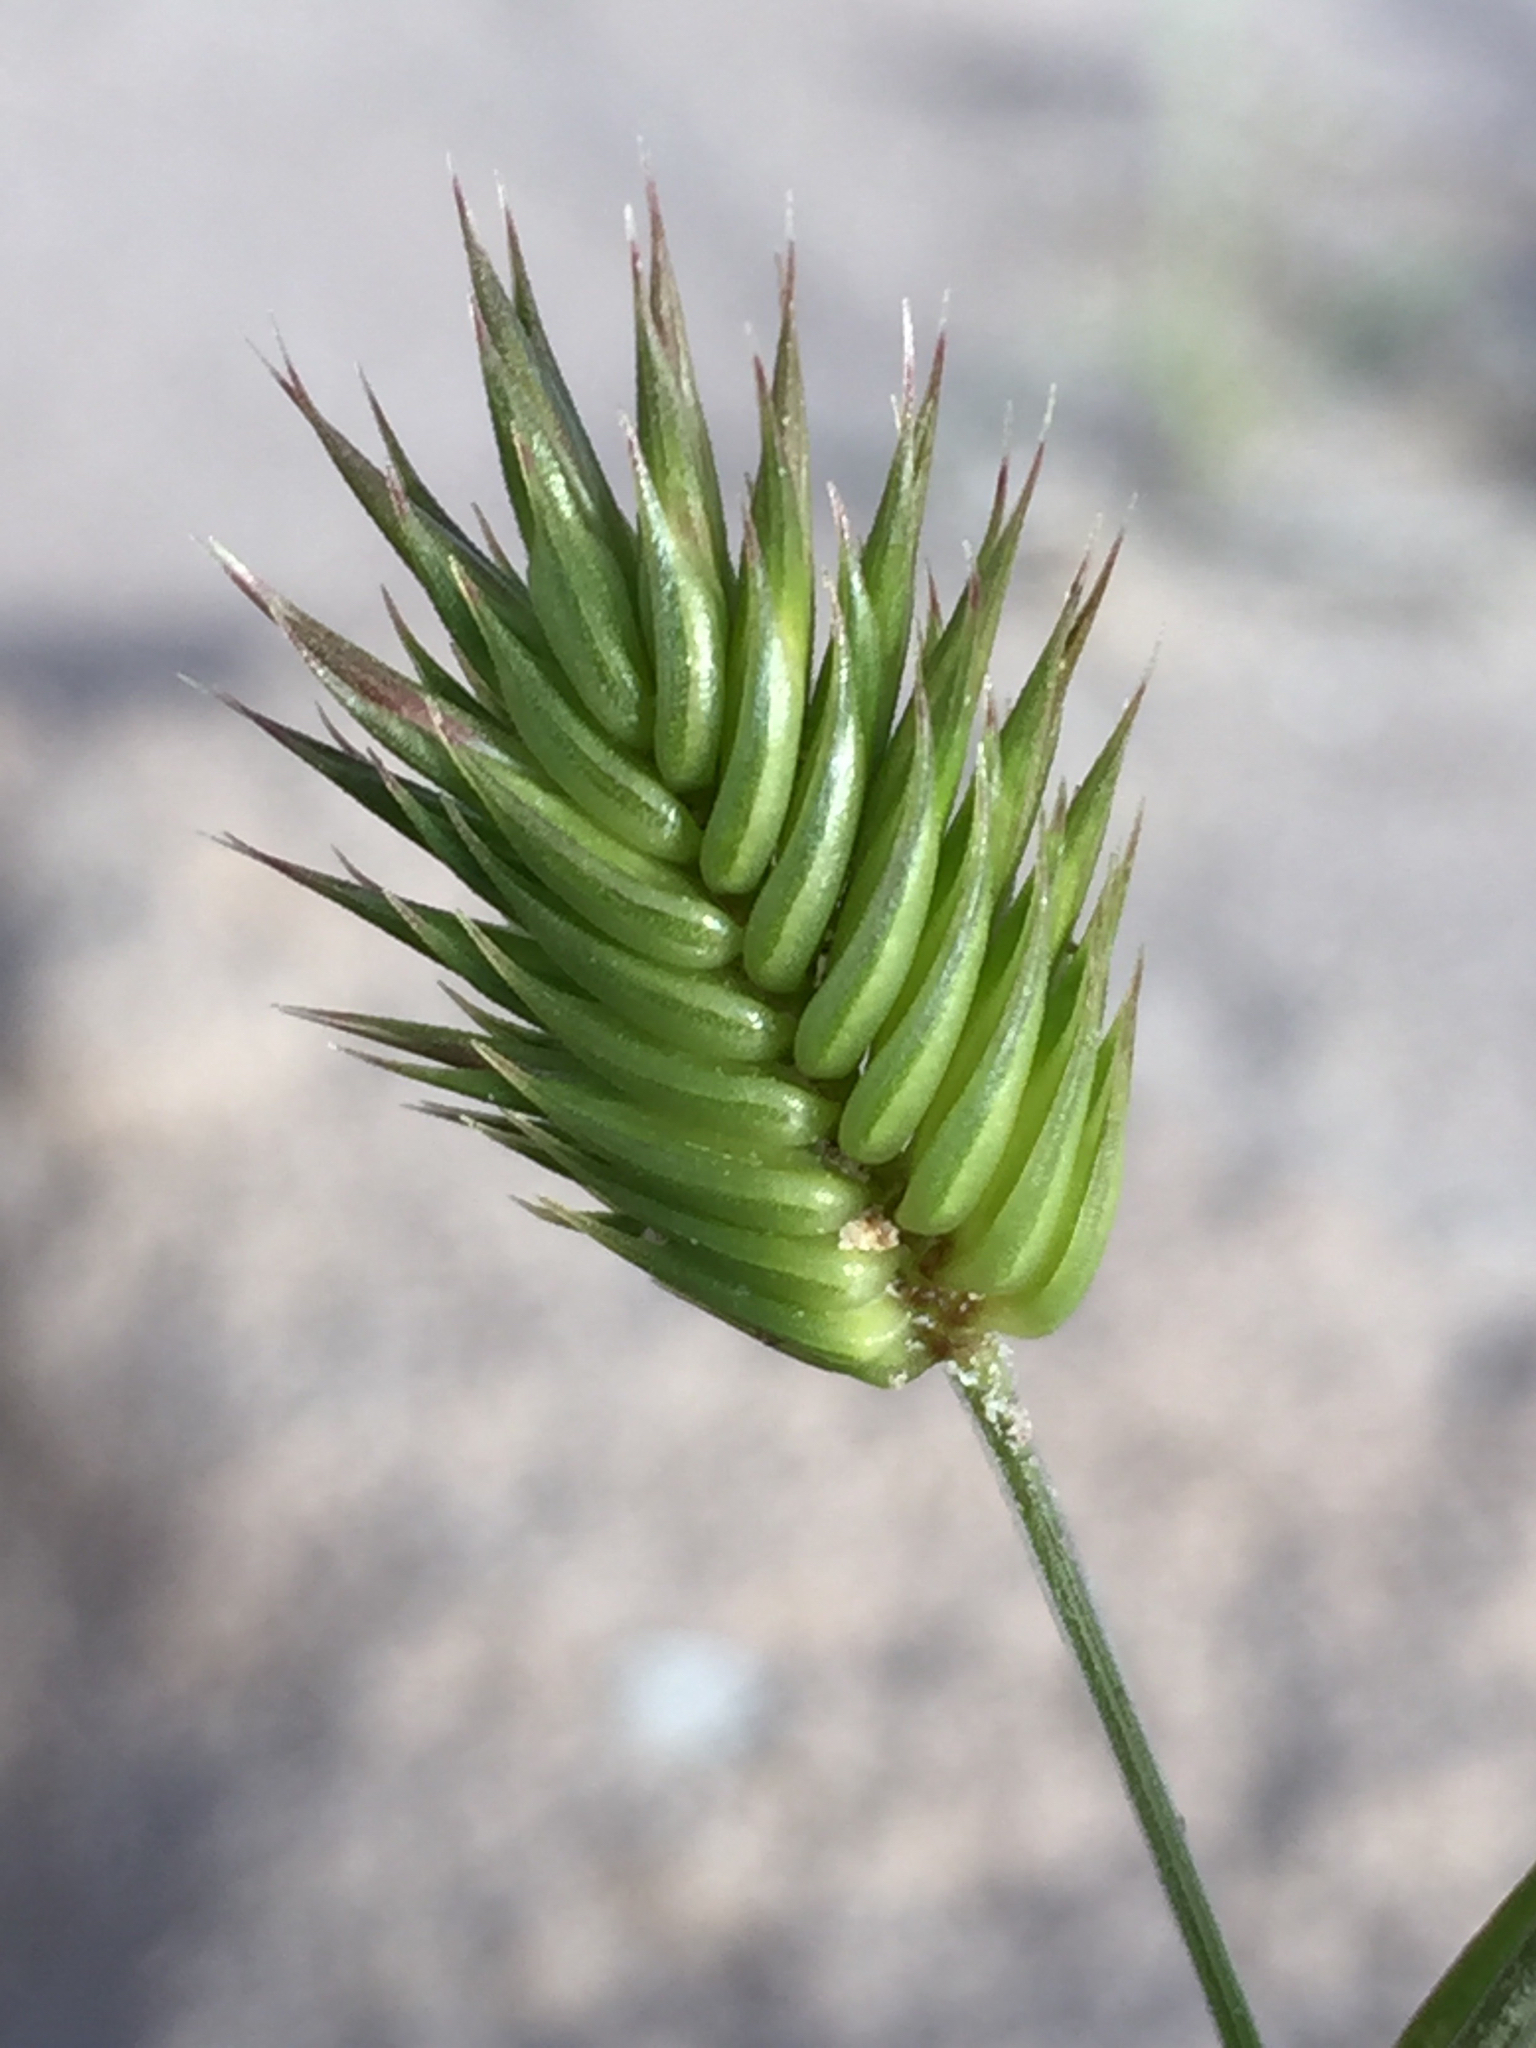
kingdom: Plantae
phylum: Tracheophyta
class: Liliopsida
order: Poales
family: Poaceae
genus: Eremopyrum
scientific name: Eremopyrum triticeum
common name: Annual wheatgrass
